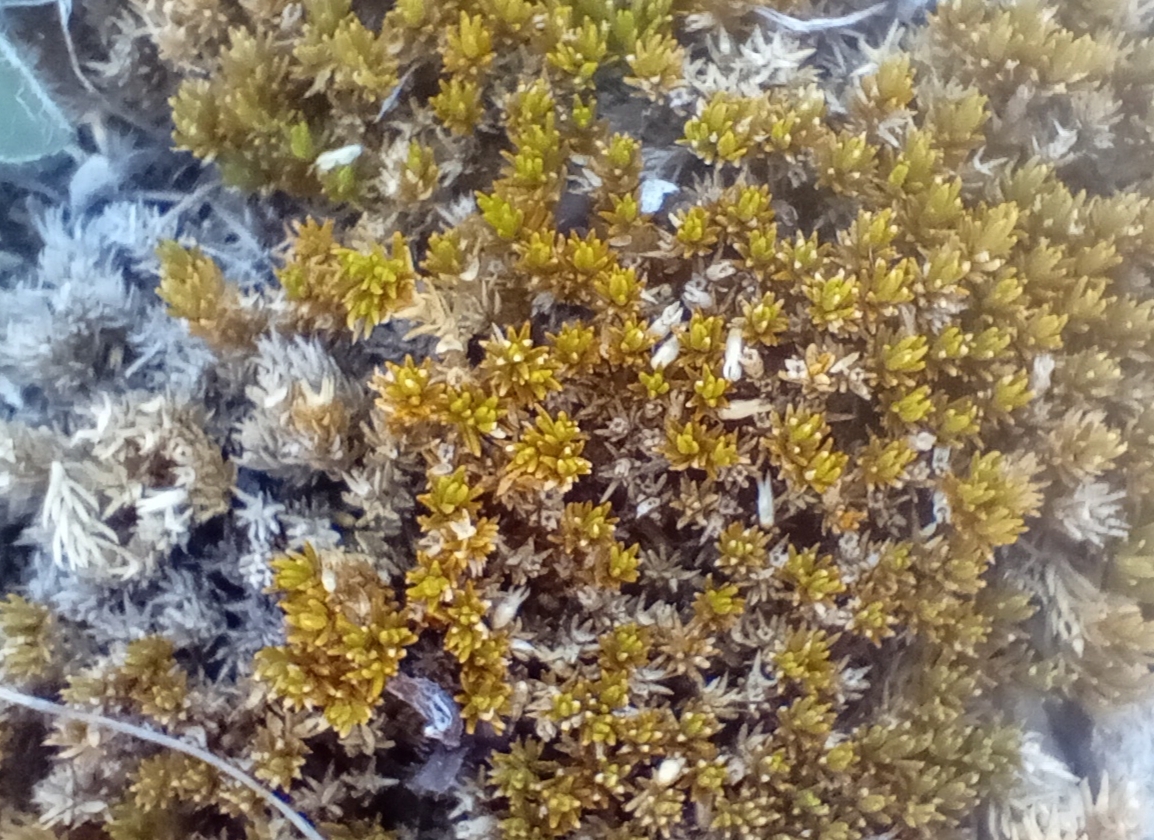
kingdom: Plantae
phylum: Tracheophyta
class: Magnoliopsida
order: Caryophyllales
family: Caryophyllaceae
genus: Scleranthus
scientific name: Scleranthus uniflorus
